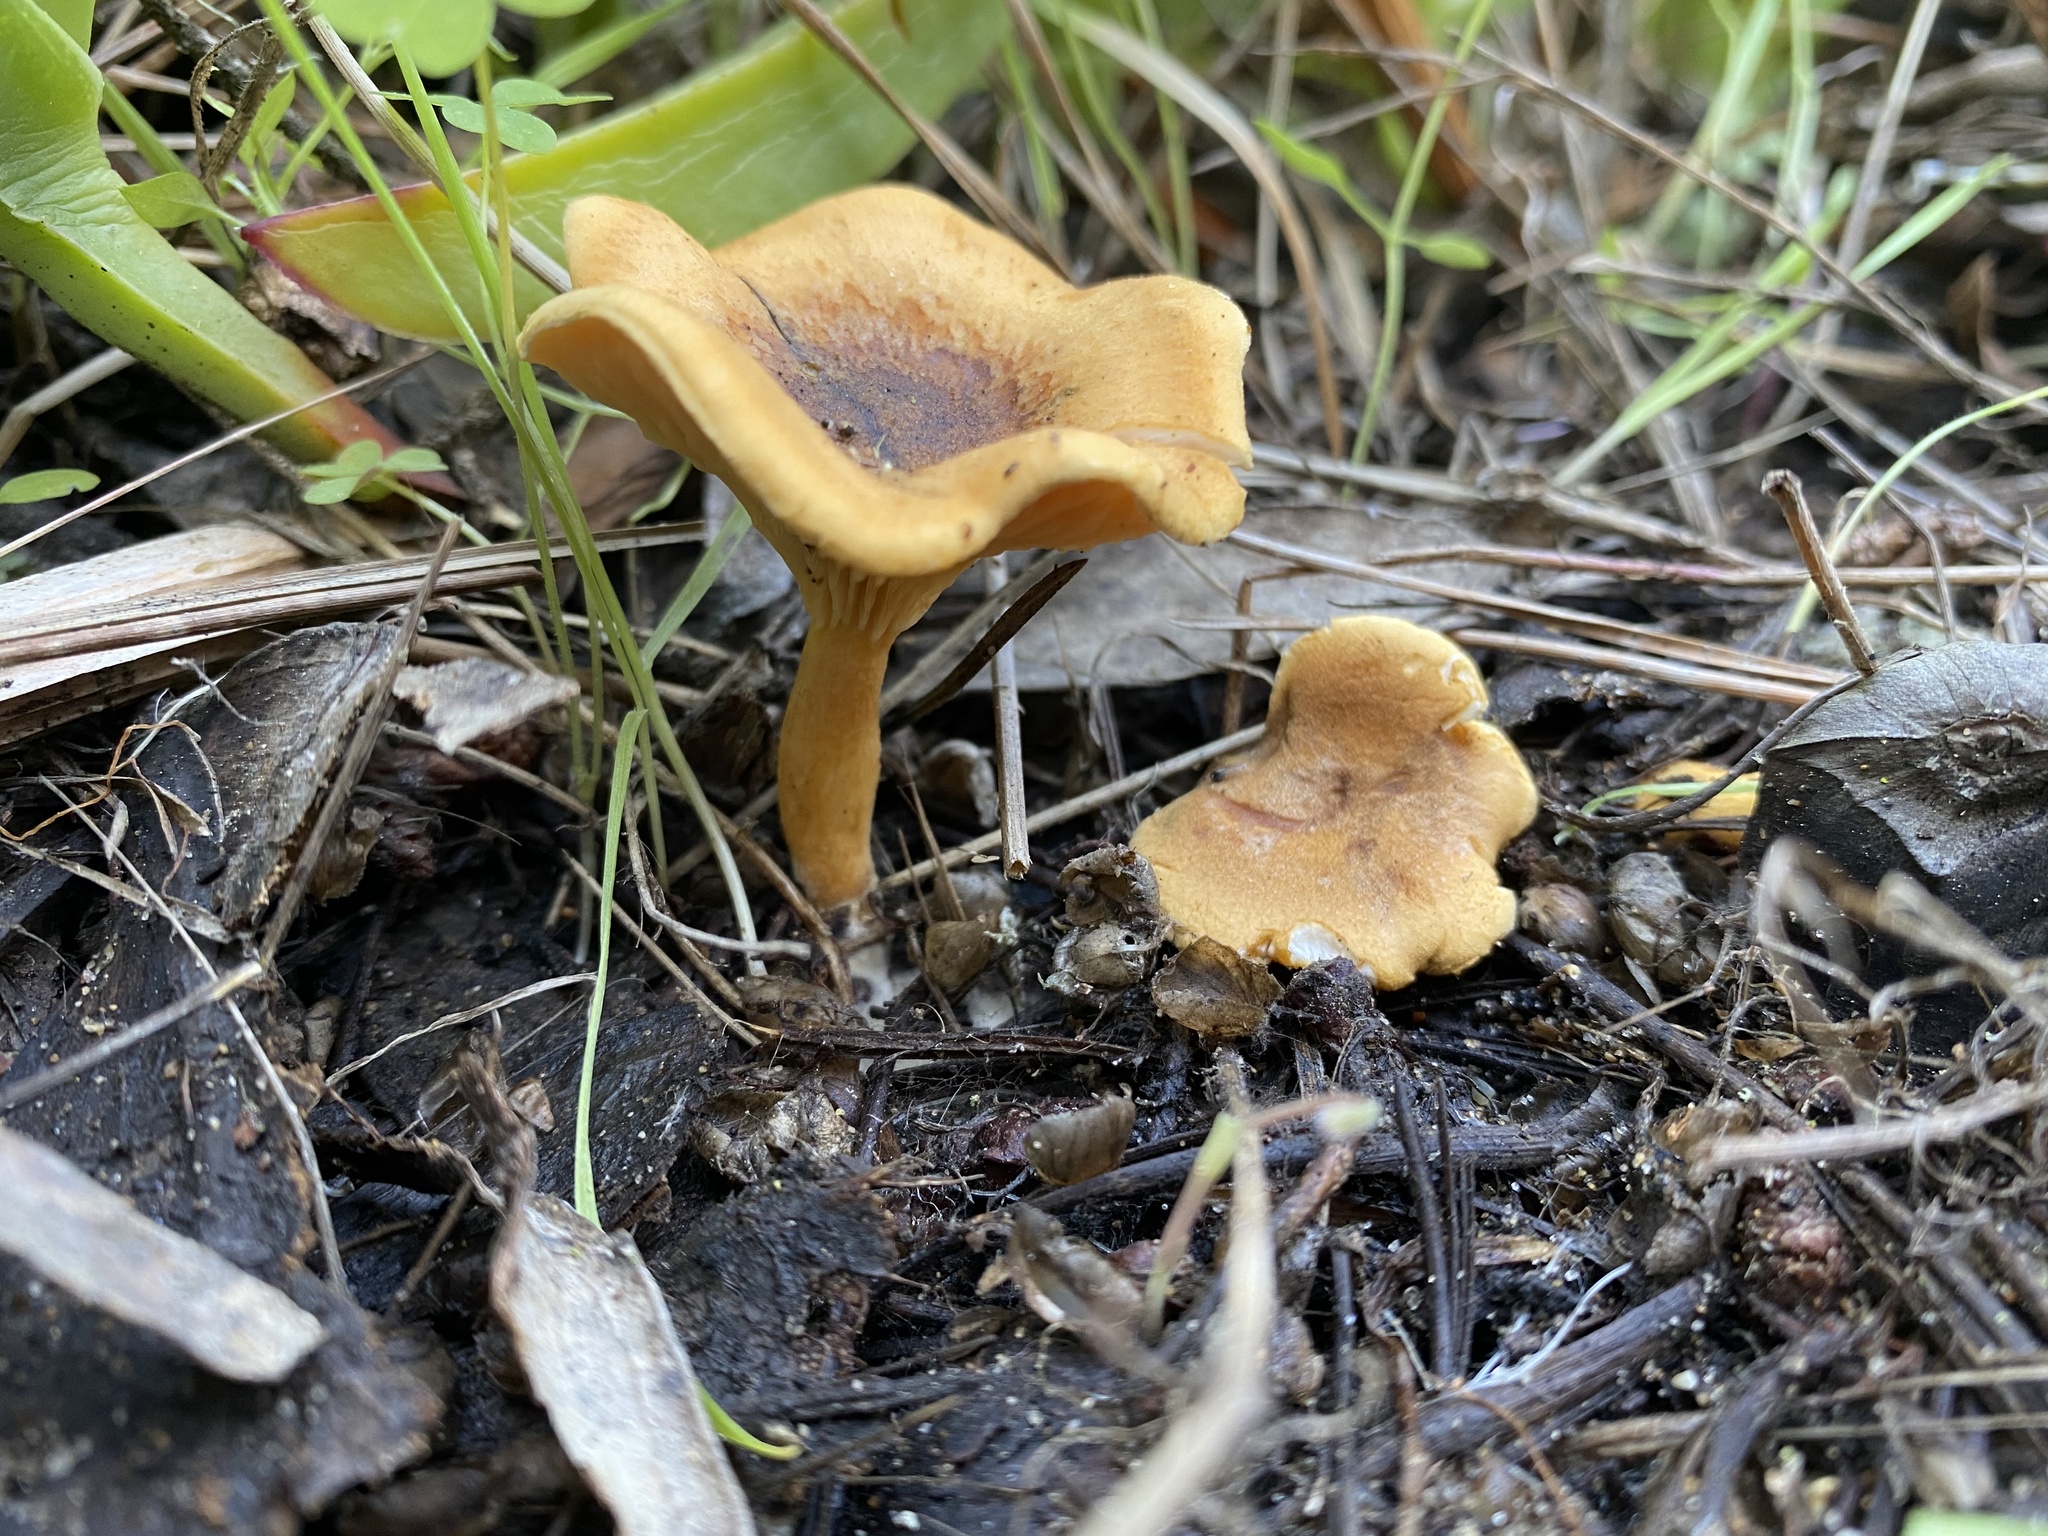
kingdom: Fungi
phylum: Basidiomycota
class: Agaricomycetes
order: Boletales
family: Hygrophoropsidaceae
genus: Hygrophoropsis
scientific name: Hygrophoropsis aurantiaca
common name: False chanterelle
